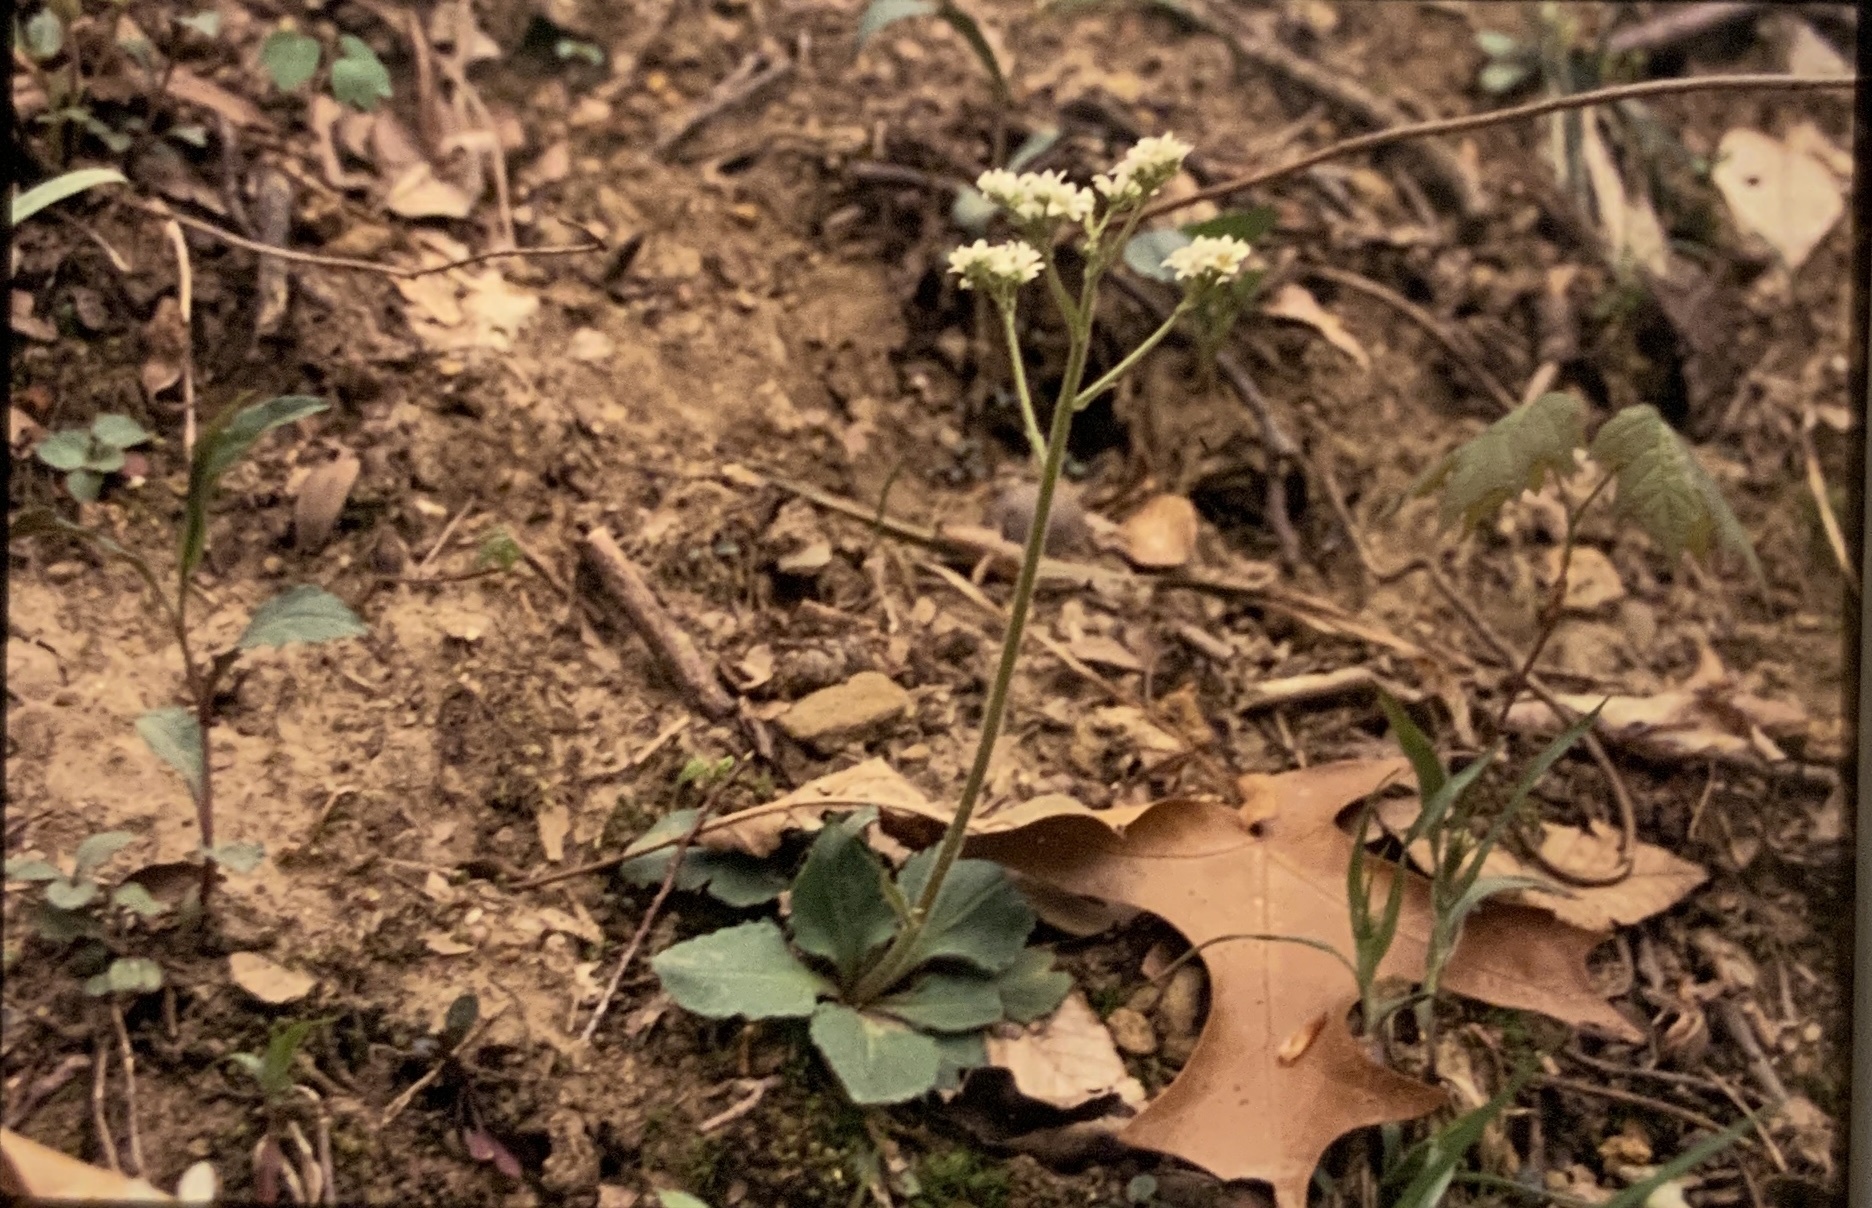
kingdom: Plantae
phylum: Tracheophyta
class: Magnoliopsida
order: Saxifragales
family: Saxifragaceae
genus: Micranthes
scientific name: Micranthes virginiensis
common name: Early saxifrage
